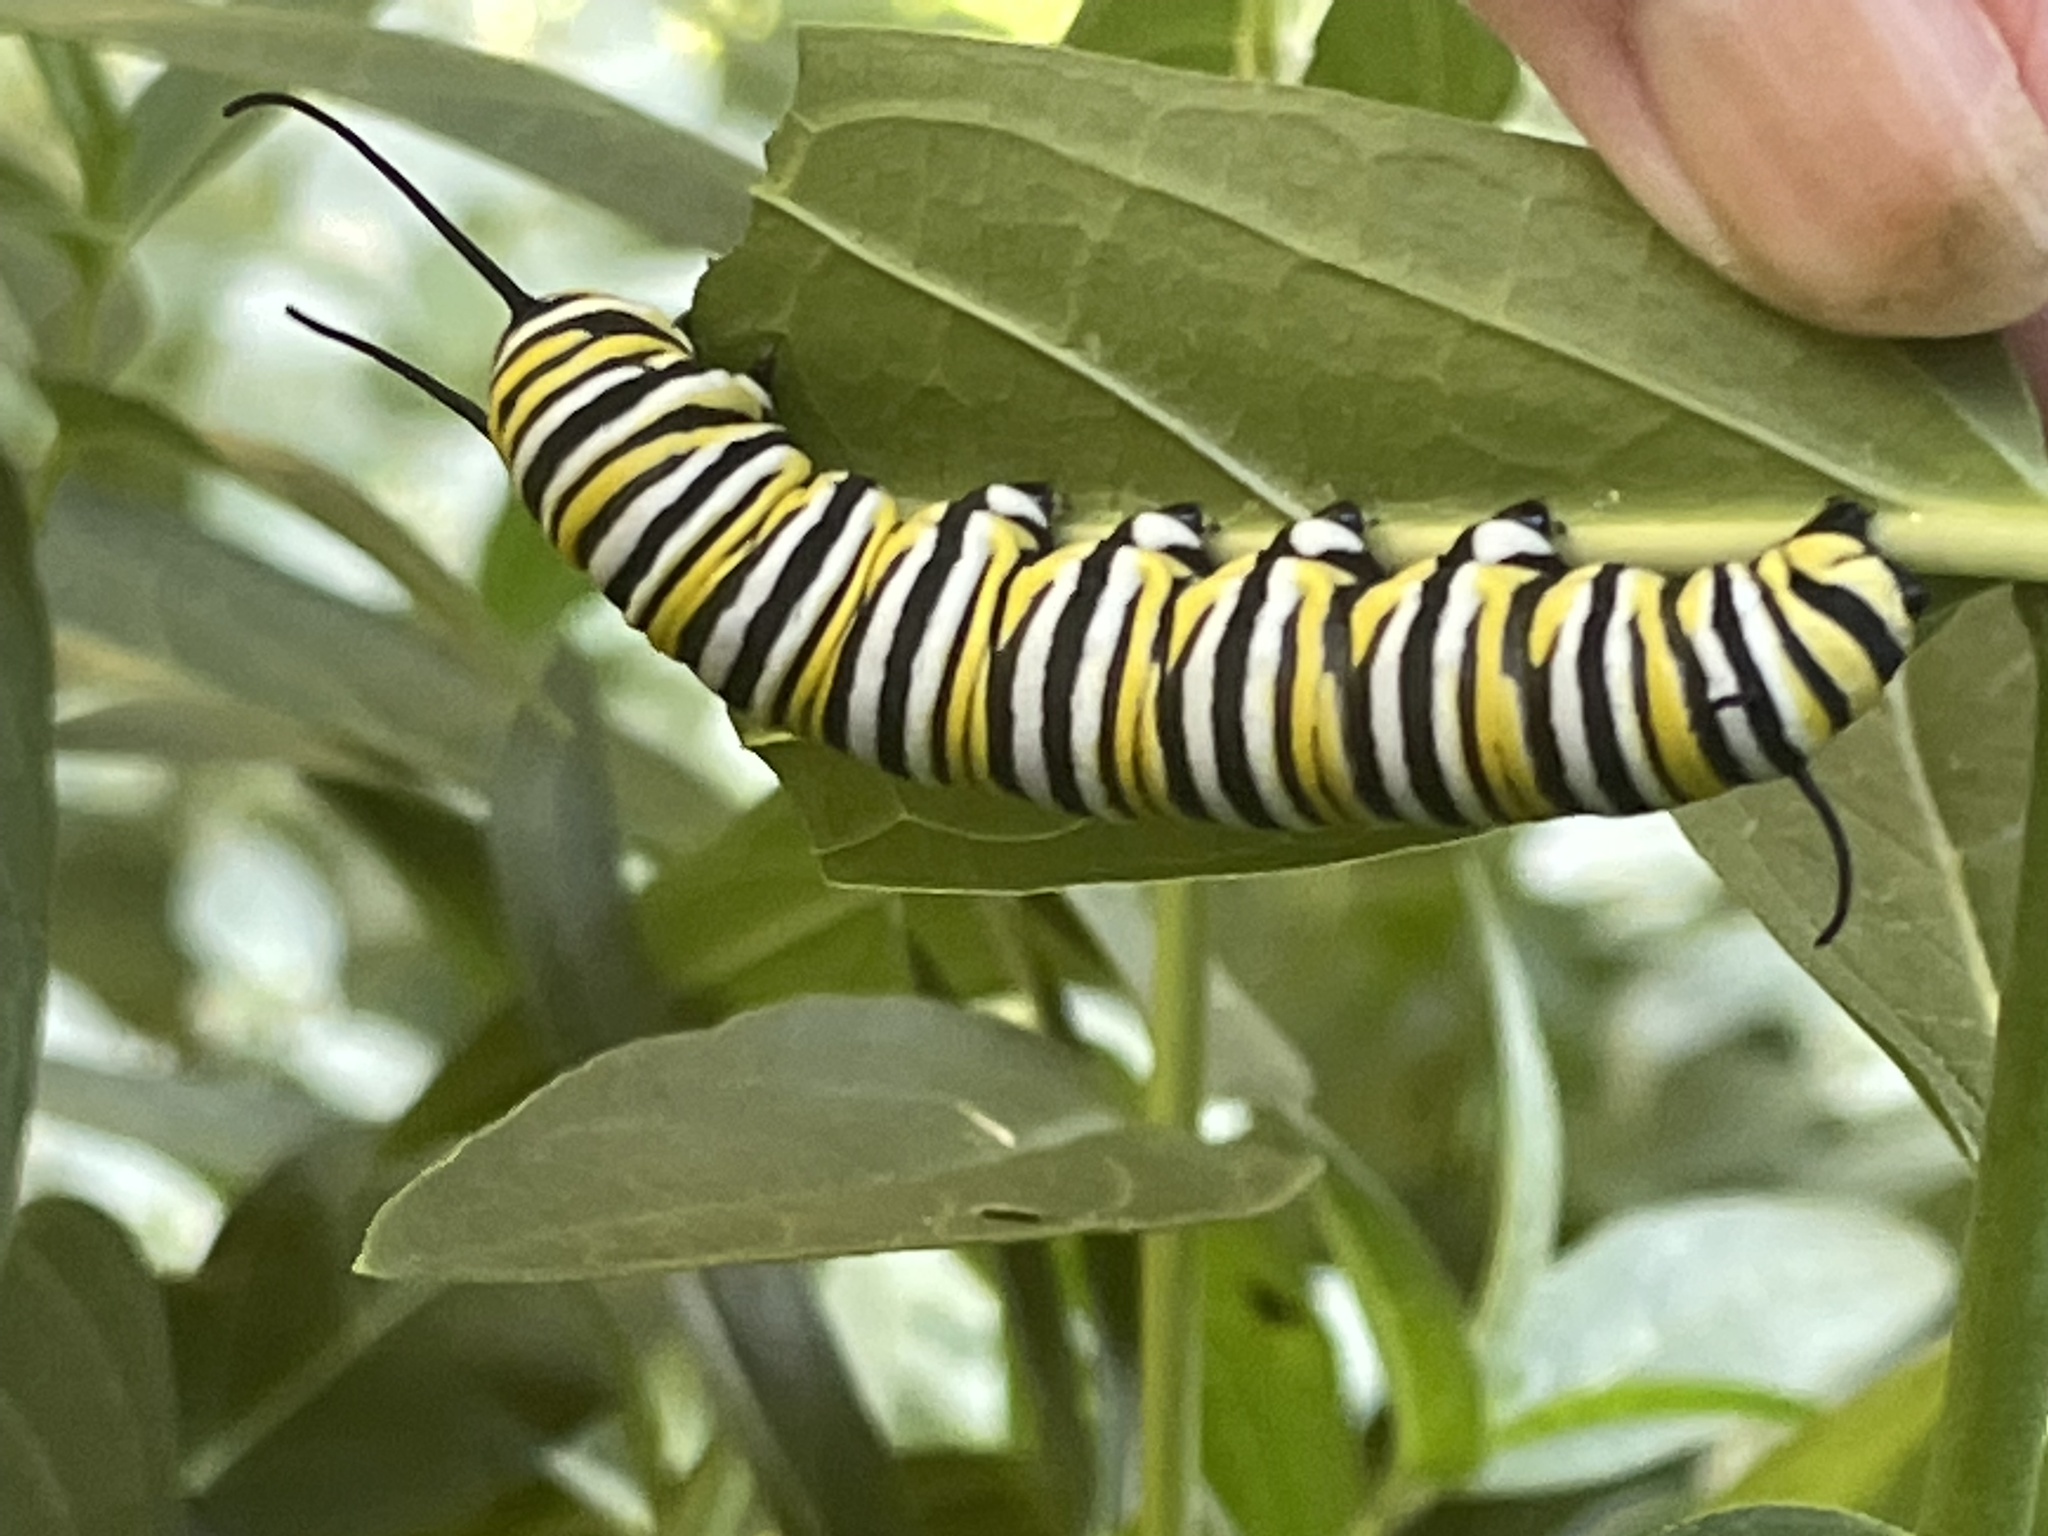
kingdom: Animalia
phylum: Arthropoda
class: Insecta
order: Lepidoptera
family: Nymphalidae
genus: Danaus
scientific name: Danaus plexippus
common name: Monarch
